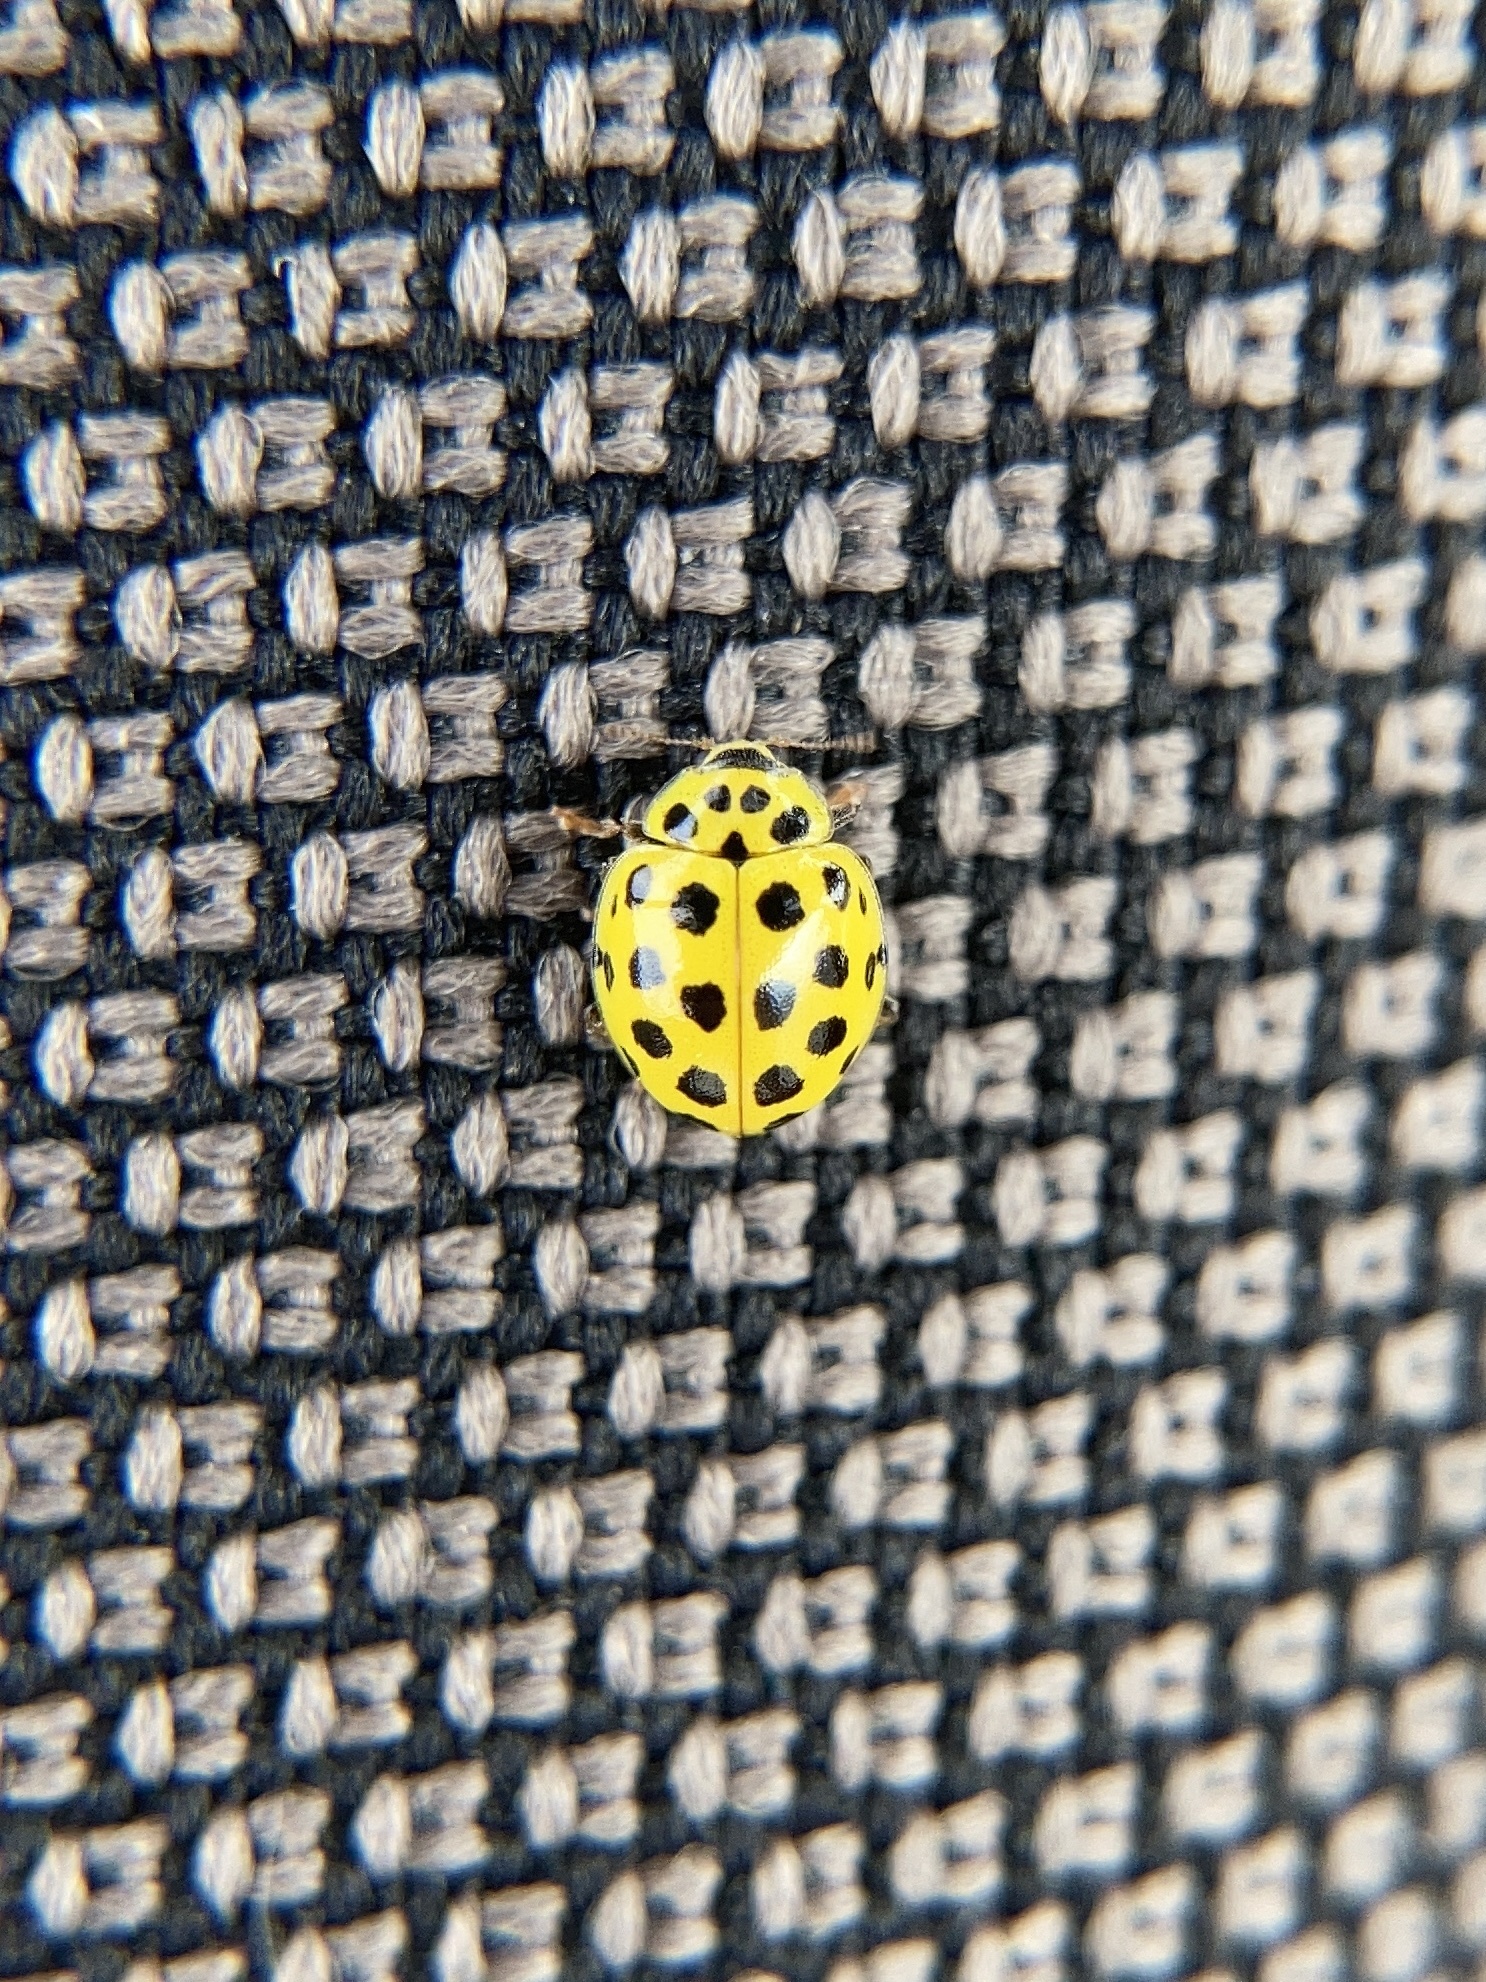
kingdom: Animalia
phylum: Arthropoda
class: Insecta
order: Coleoptera
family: Coccinellidae
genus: Psyllobora
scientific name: Psyllobora vigintiduopunctata
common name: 22-spot ladybird
